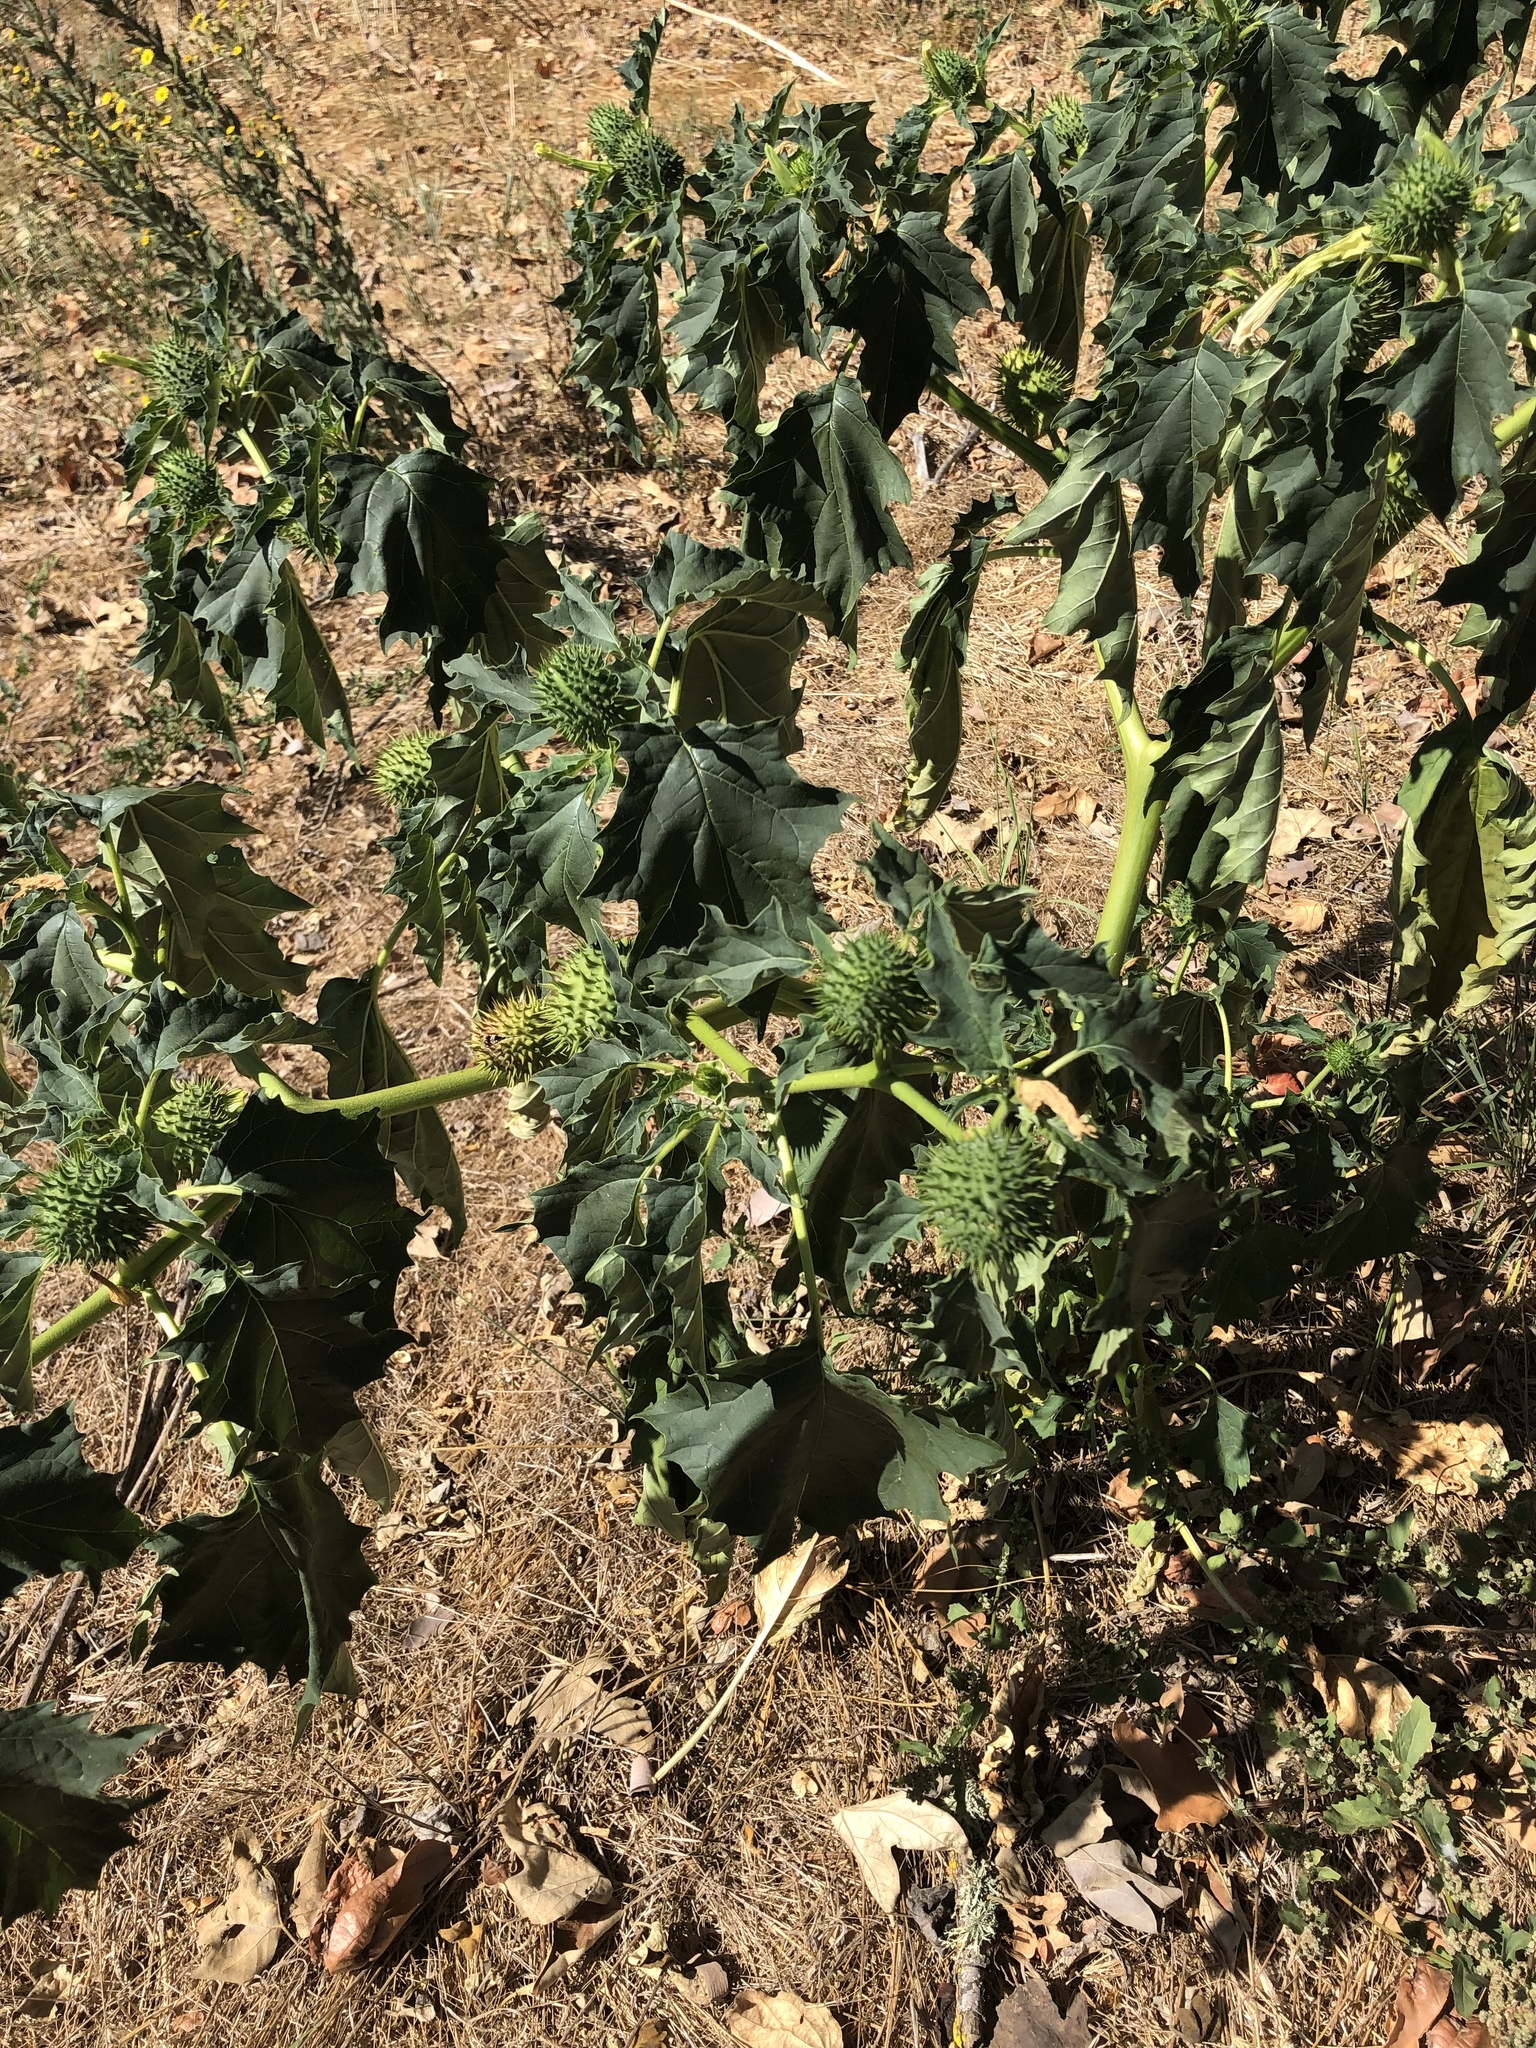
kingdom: Plantae
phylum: Tracheophyta
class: Magnoliopsida
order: Solanales
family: Solanaceae
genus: Datura
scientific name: Datura stramonium
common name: Thorn-apple
